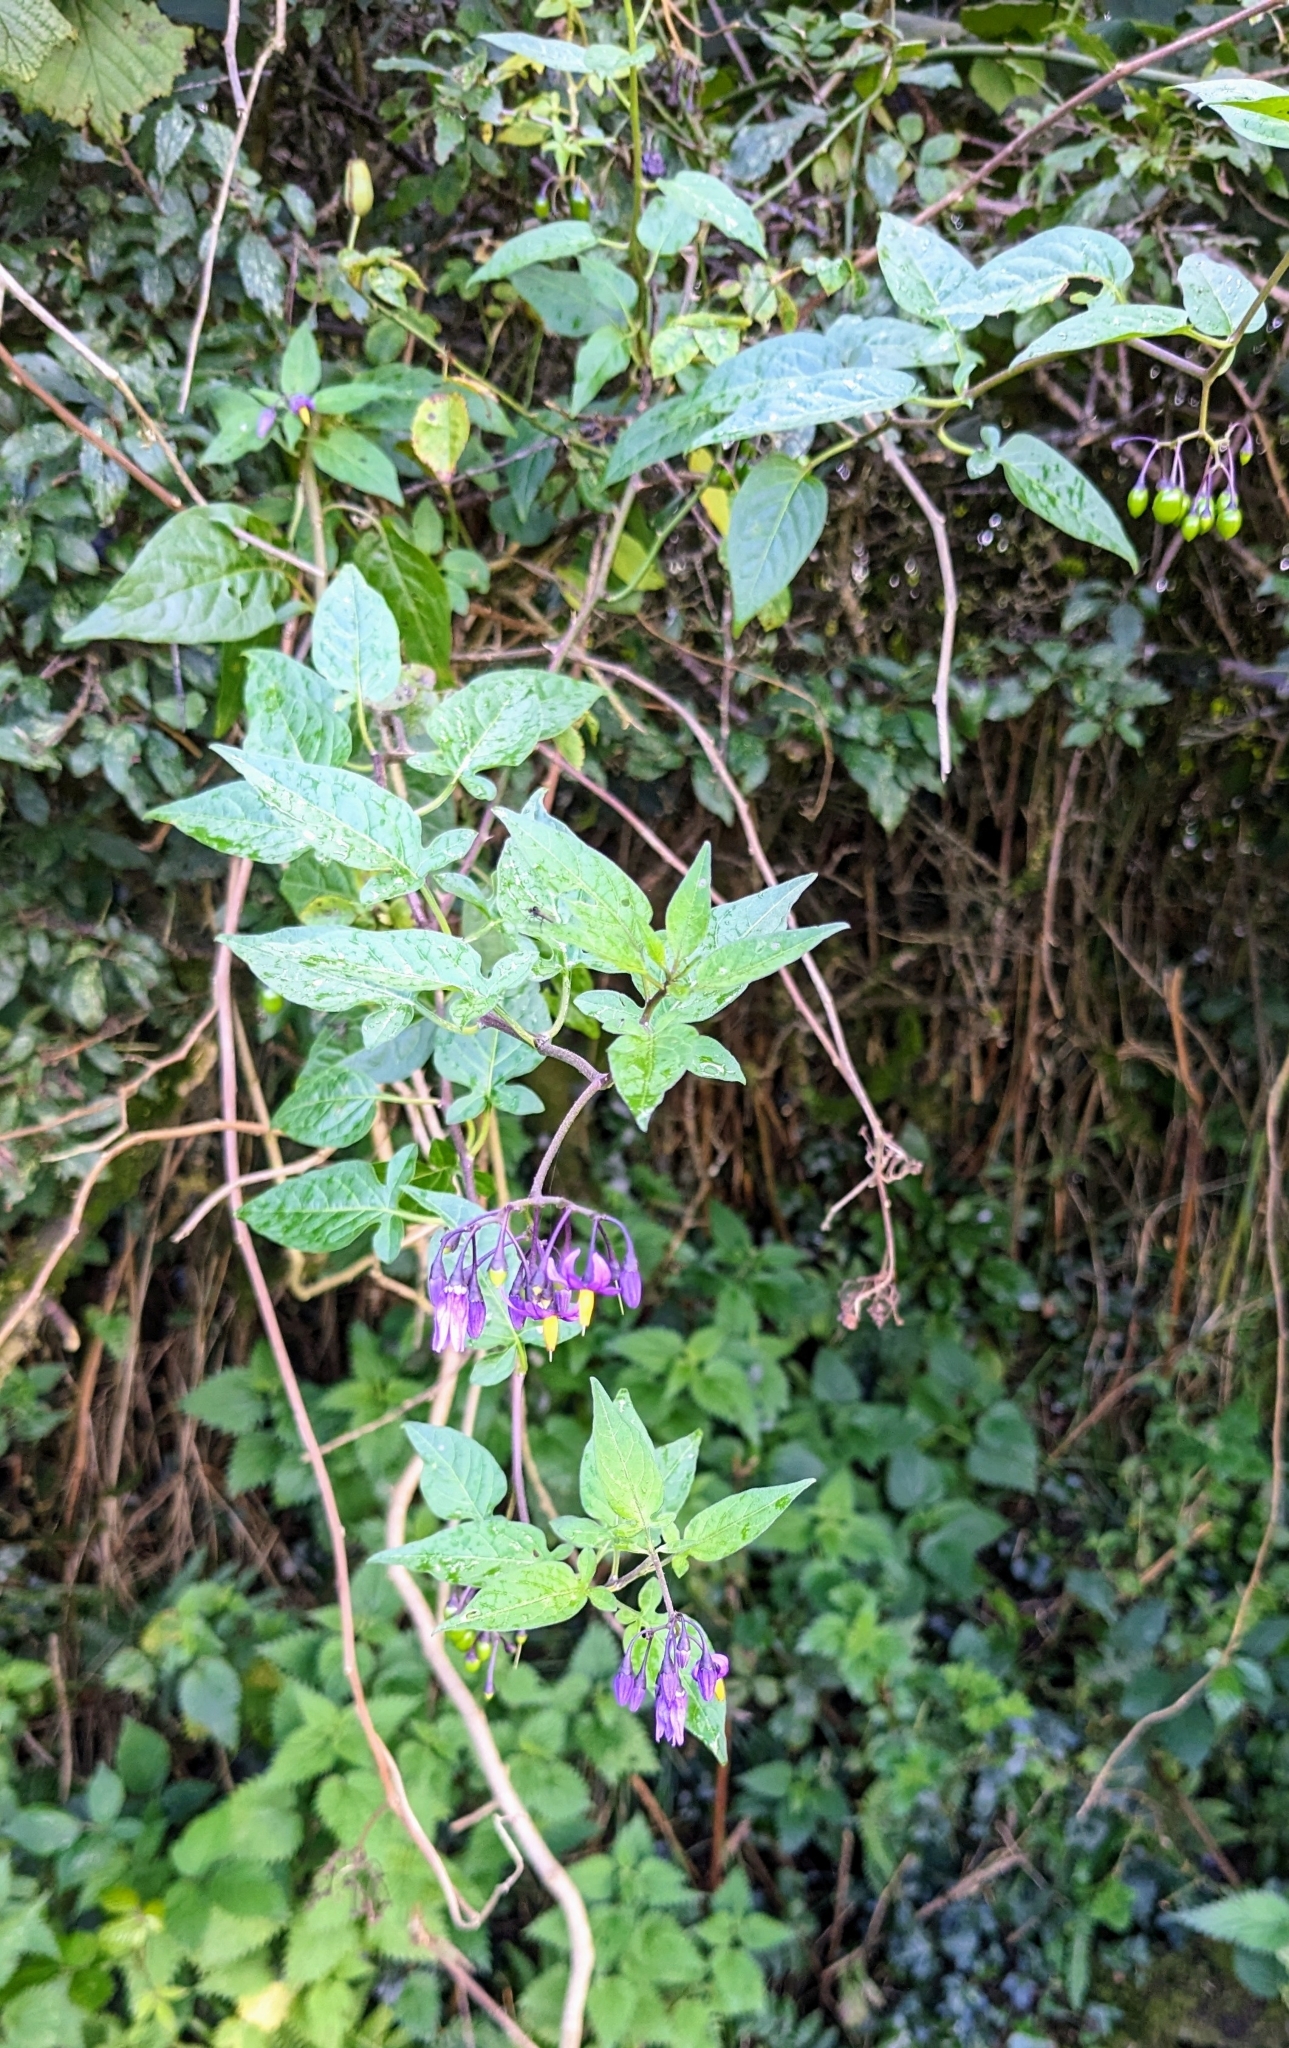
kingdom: Plantae
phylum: Tracheophyta
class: Magnoliopsida
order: Solanales
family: Solanaceae
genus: Solanum
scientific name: Solanum dulcamara
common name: Climbing nightshade
